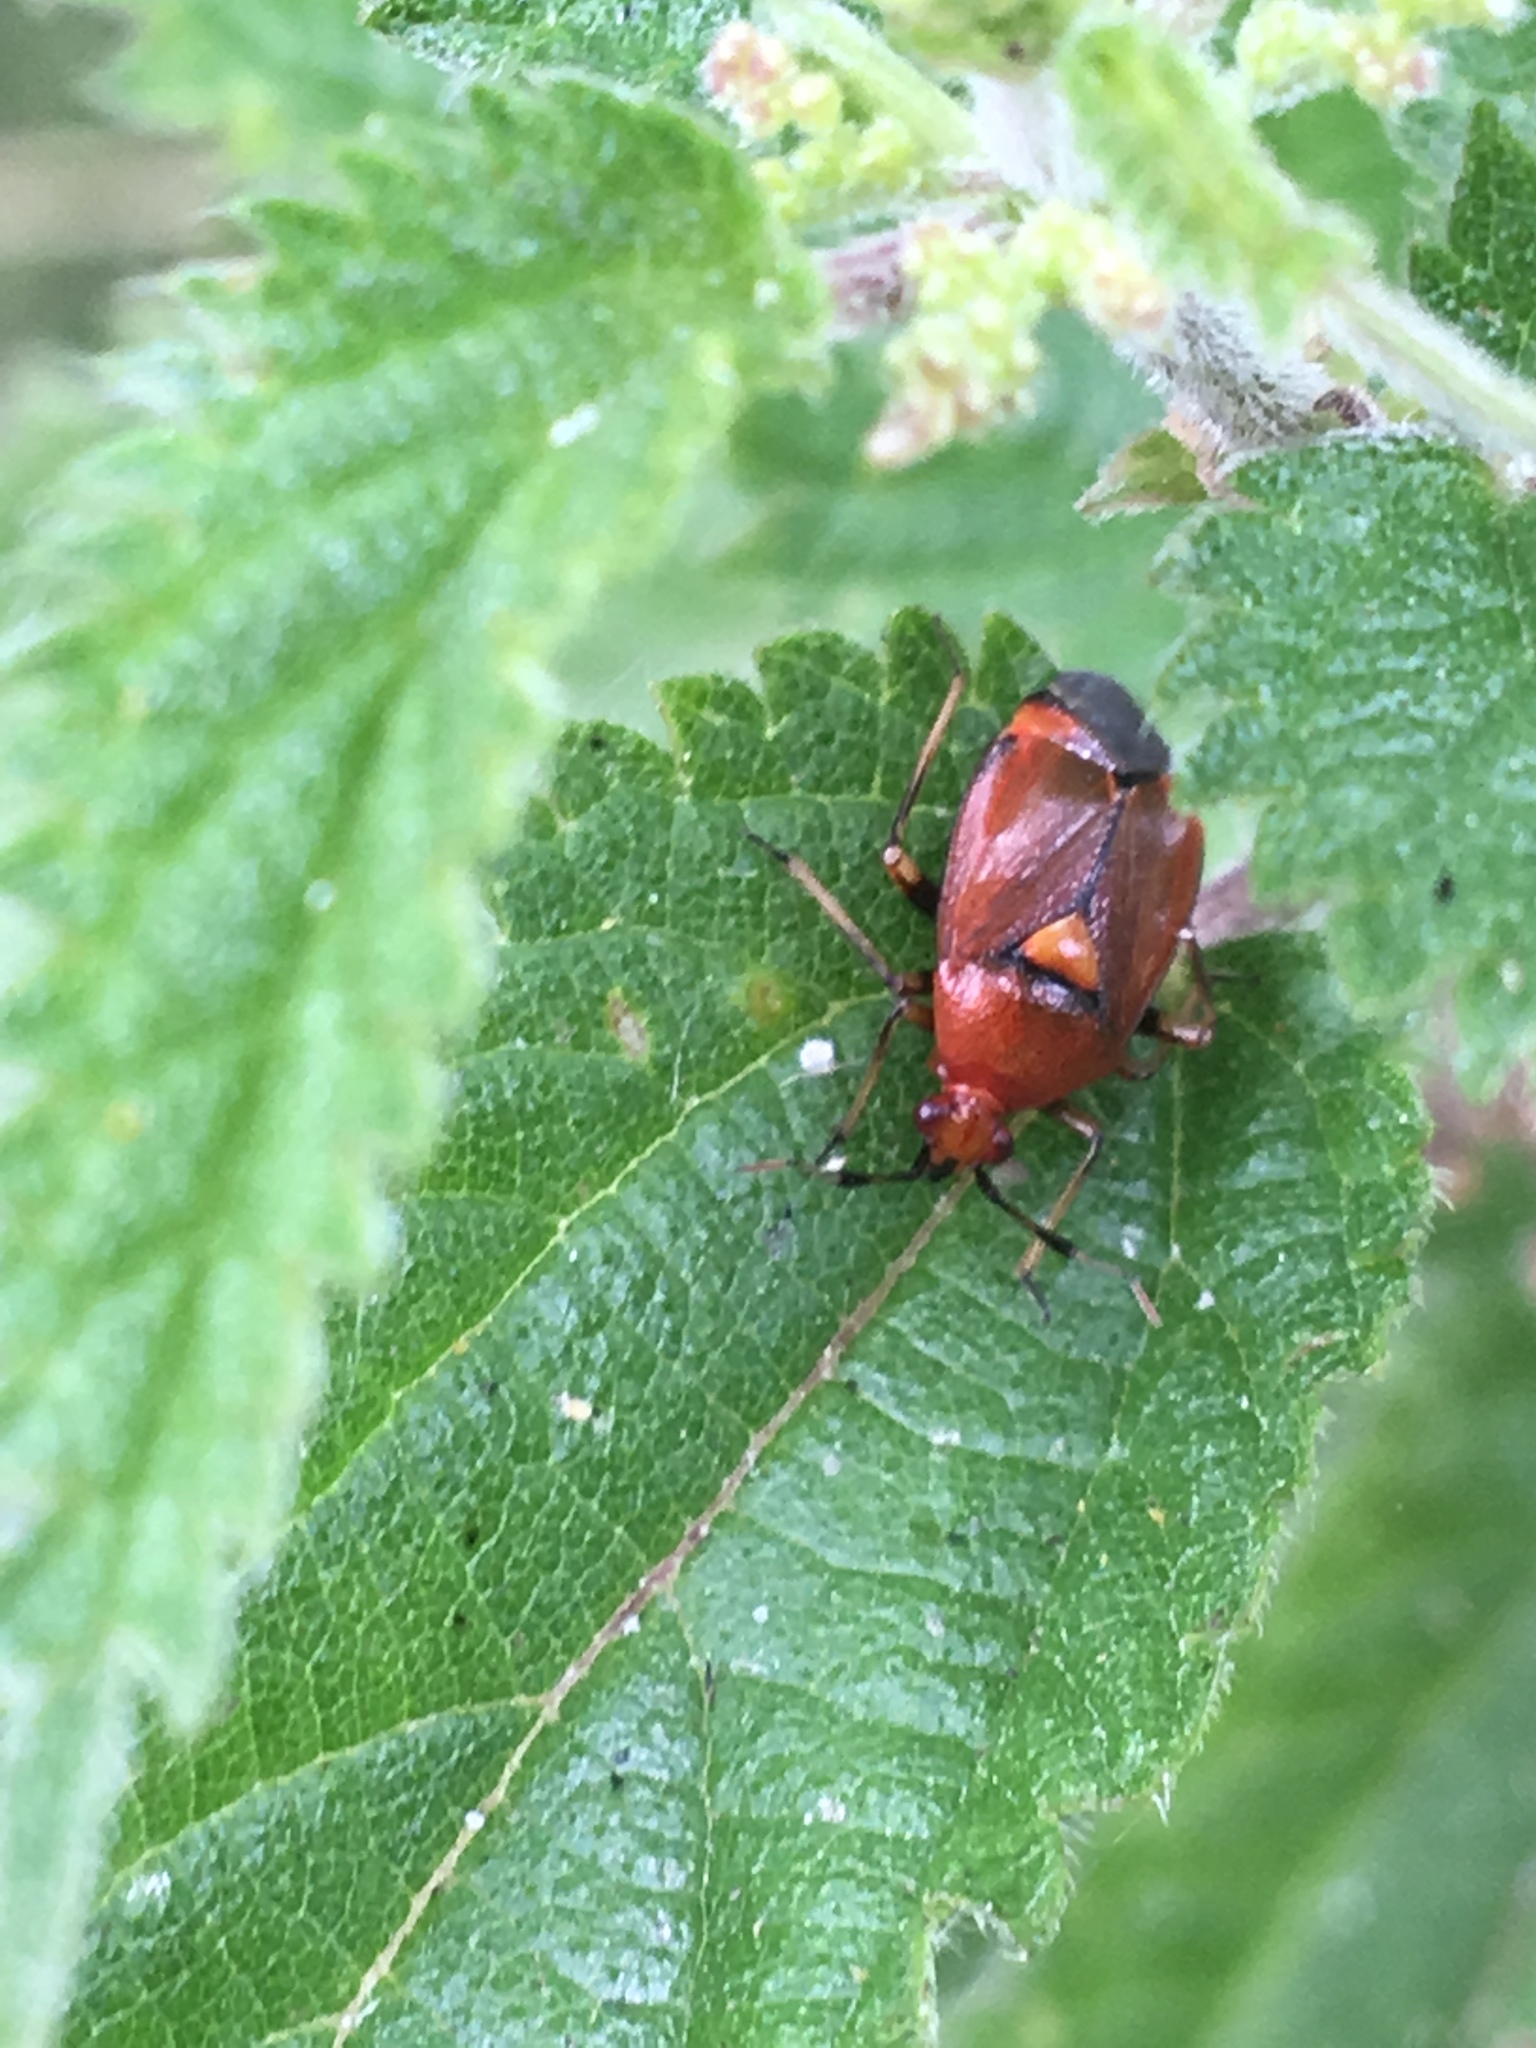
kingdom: Animalia
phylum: Arthropoda
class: Insecta
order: Hemiptera
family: Miridae
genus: Deraeocoris
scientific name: Deraeocoris ruber
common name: Plant bug
